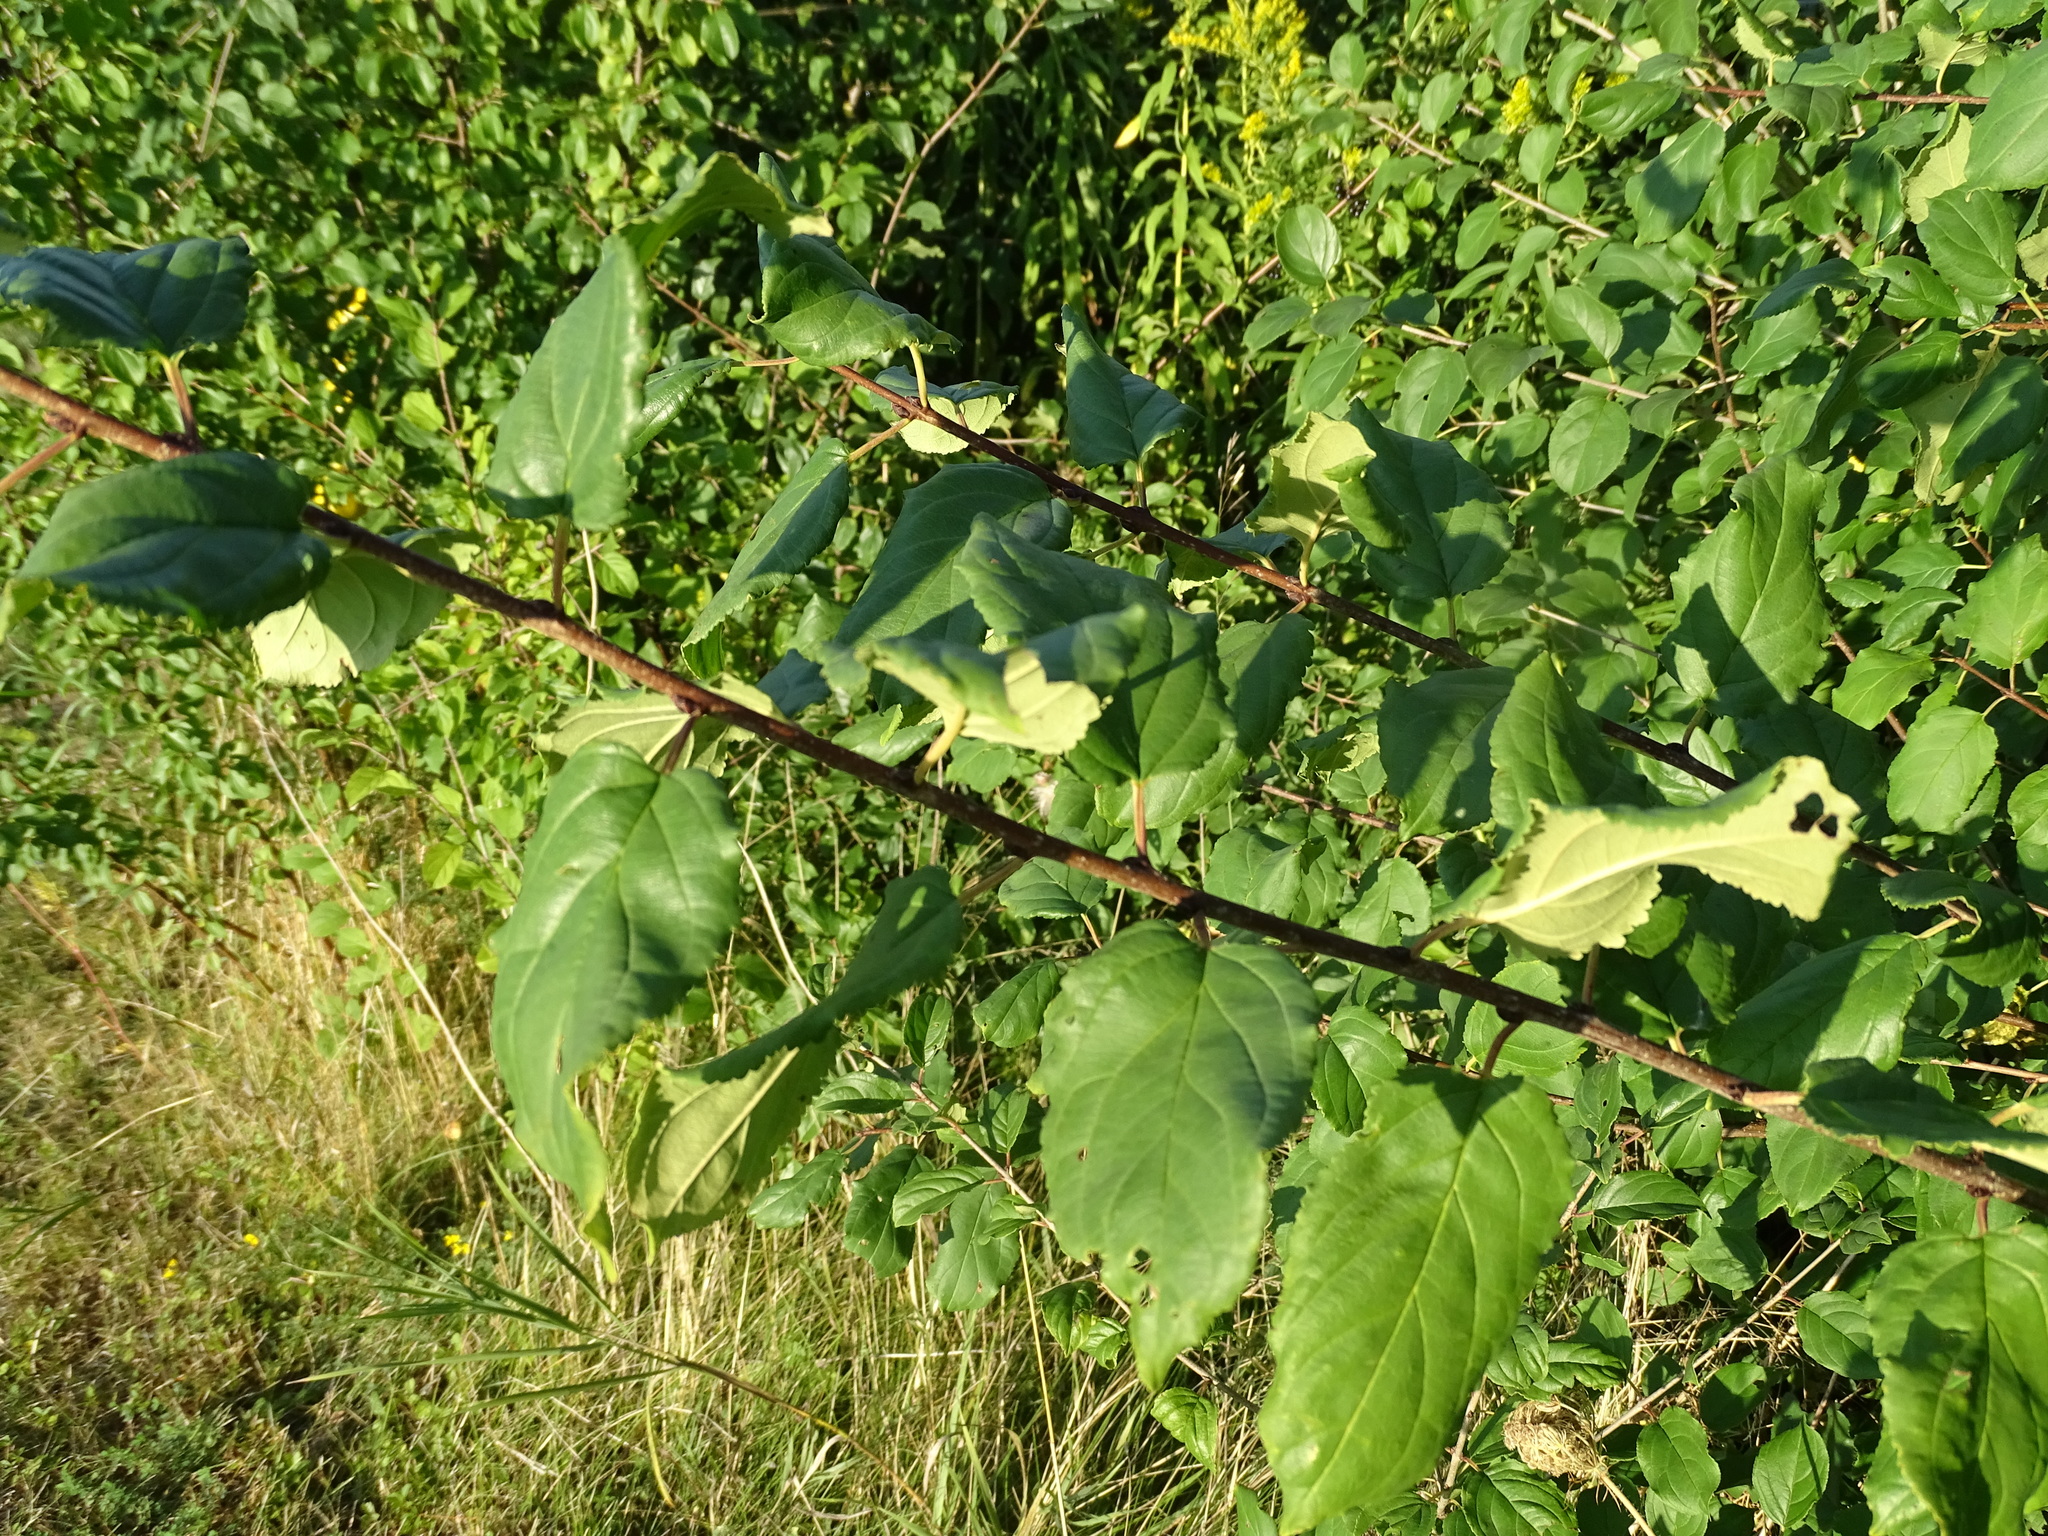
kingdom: Plantae
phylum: Tracheophyta
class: Magnoliopsida
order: Rosales
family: Rhamnaceae
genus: Rhamnus
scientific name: Rhamnus cathartica
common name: Common buckthorn
